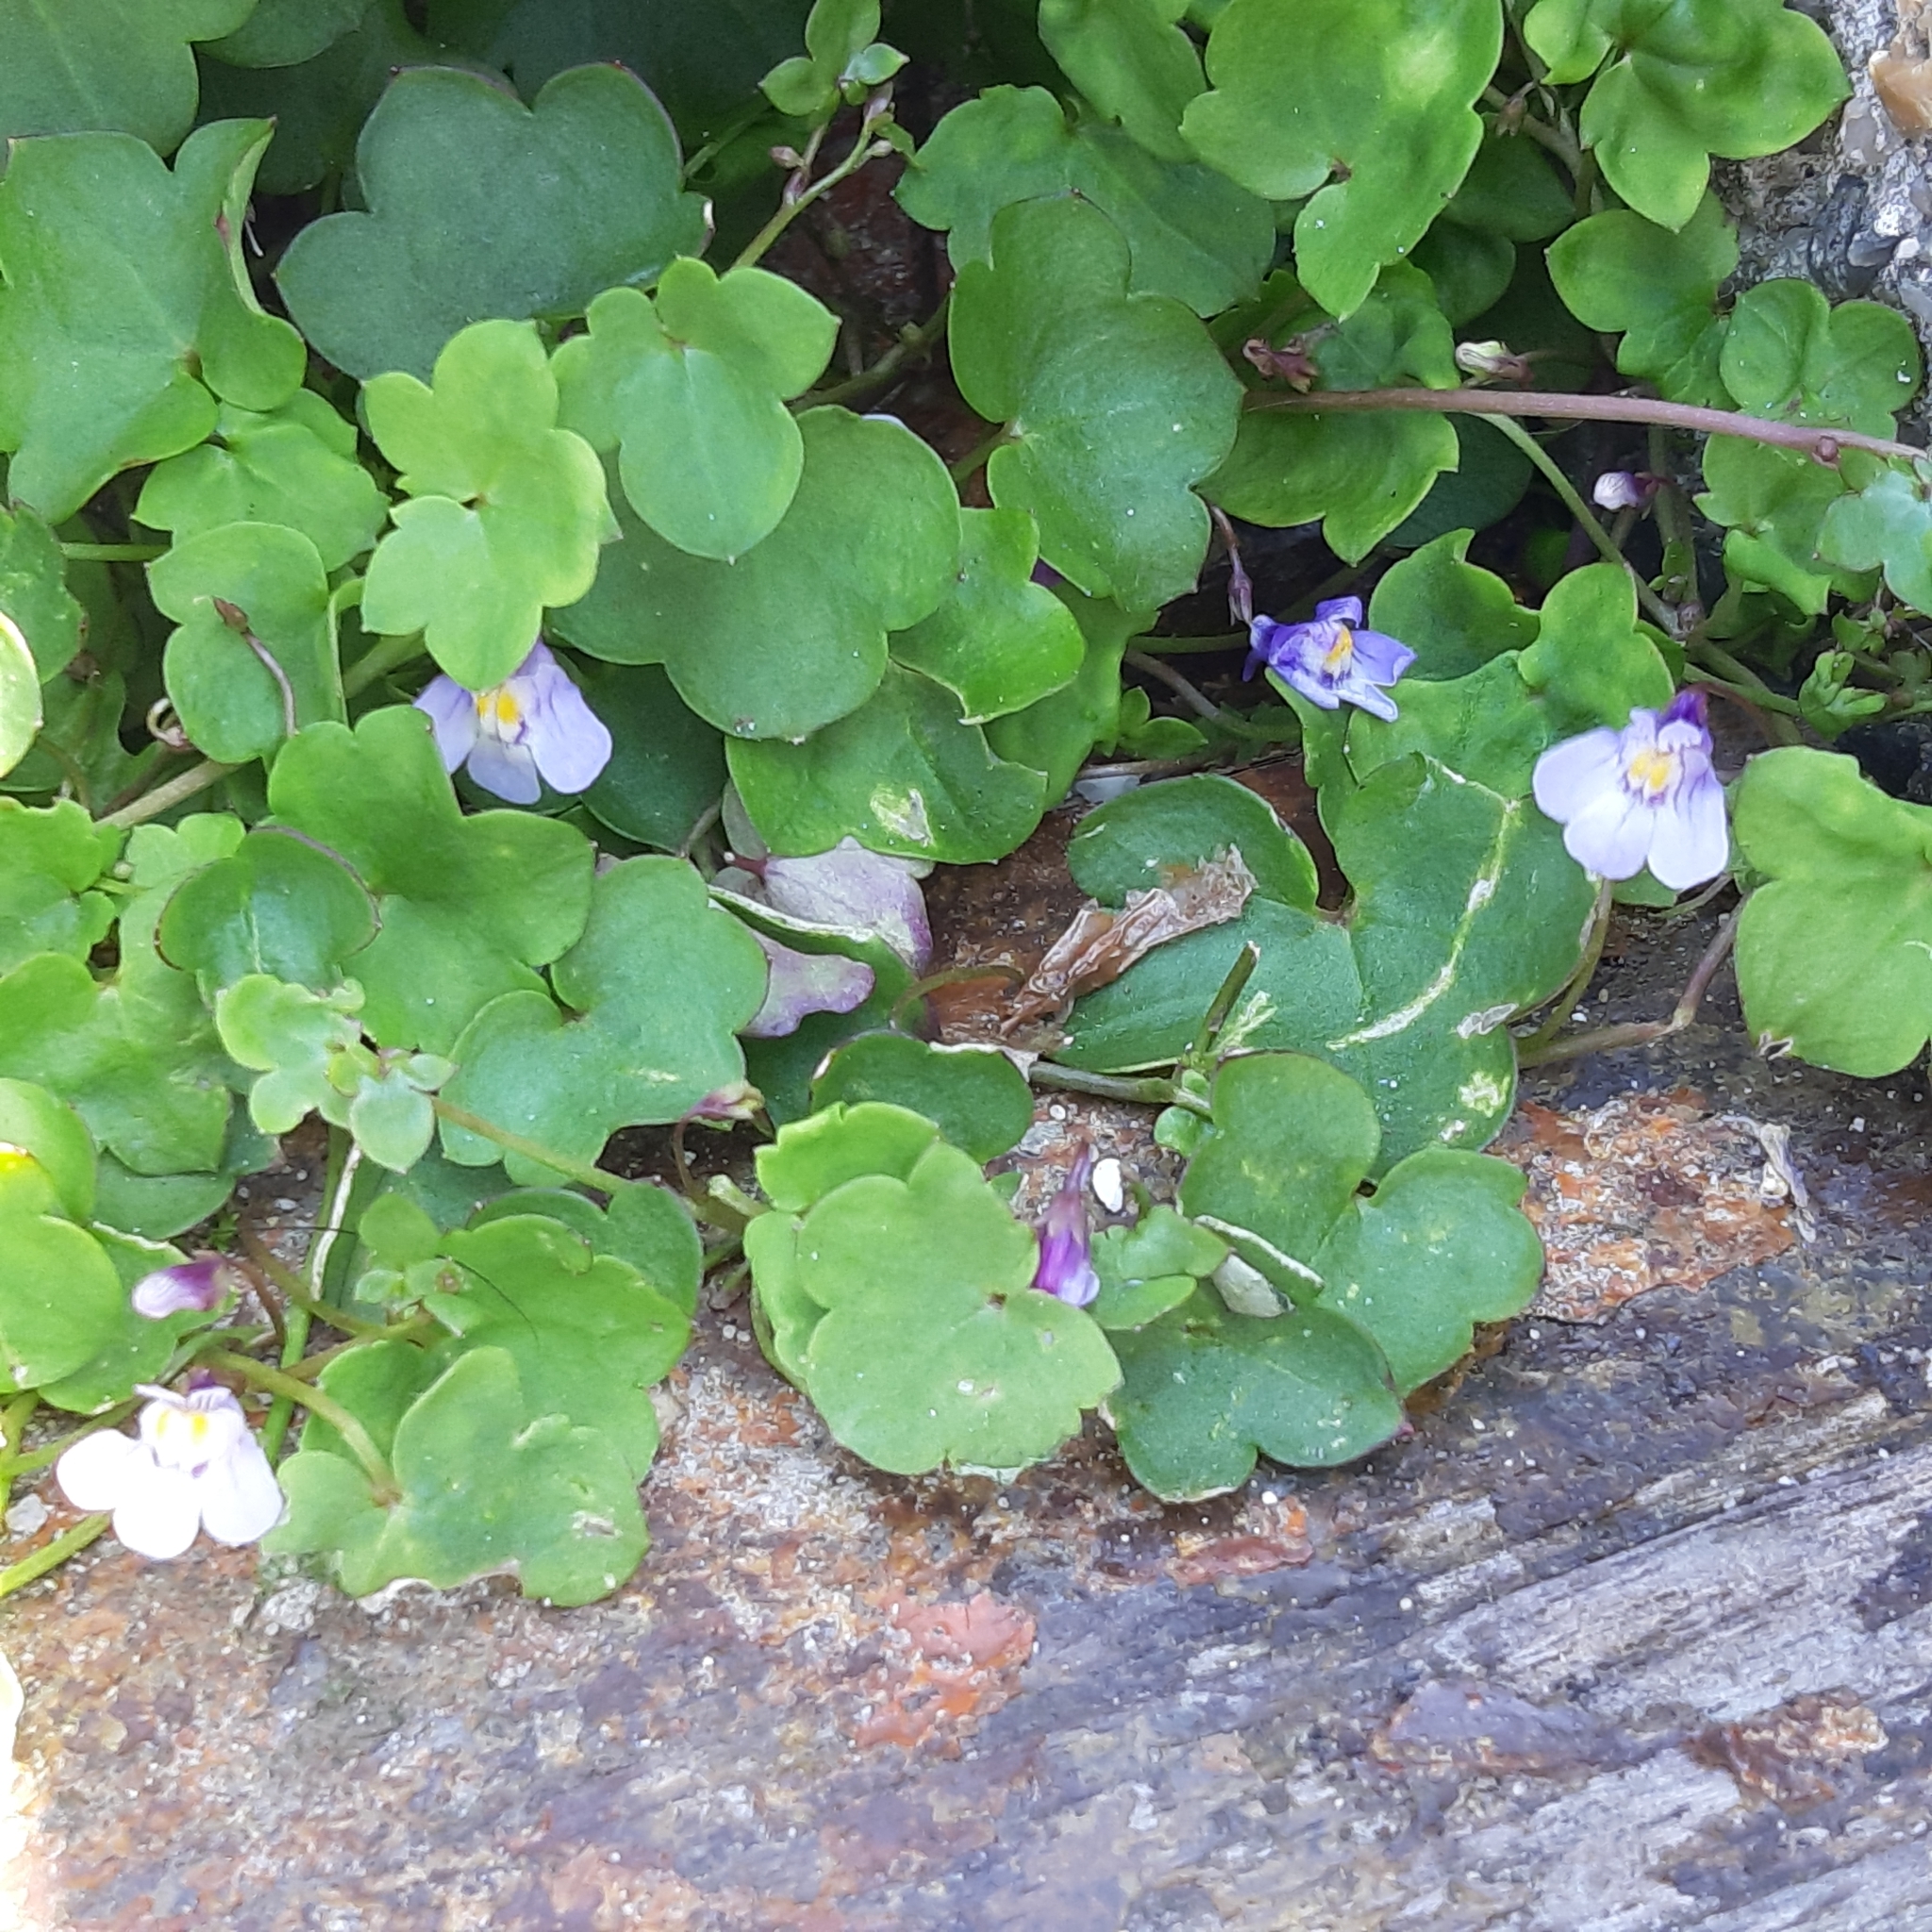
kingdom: Plantae
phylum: Tracheophyta
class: Magnoliopsida
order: Lamiales
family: Plantaginaceae
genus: Cymbalaria
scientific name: Cymbalaria muralis
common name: Ivy-leaved toadflax
